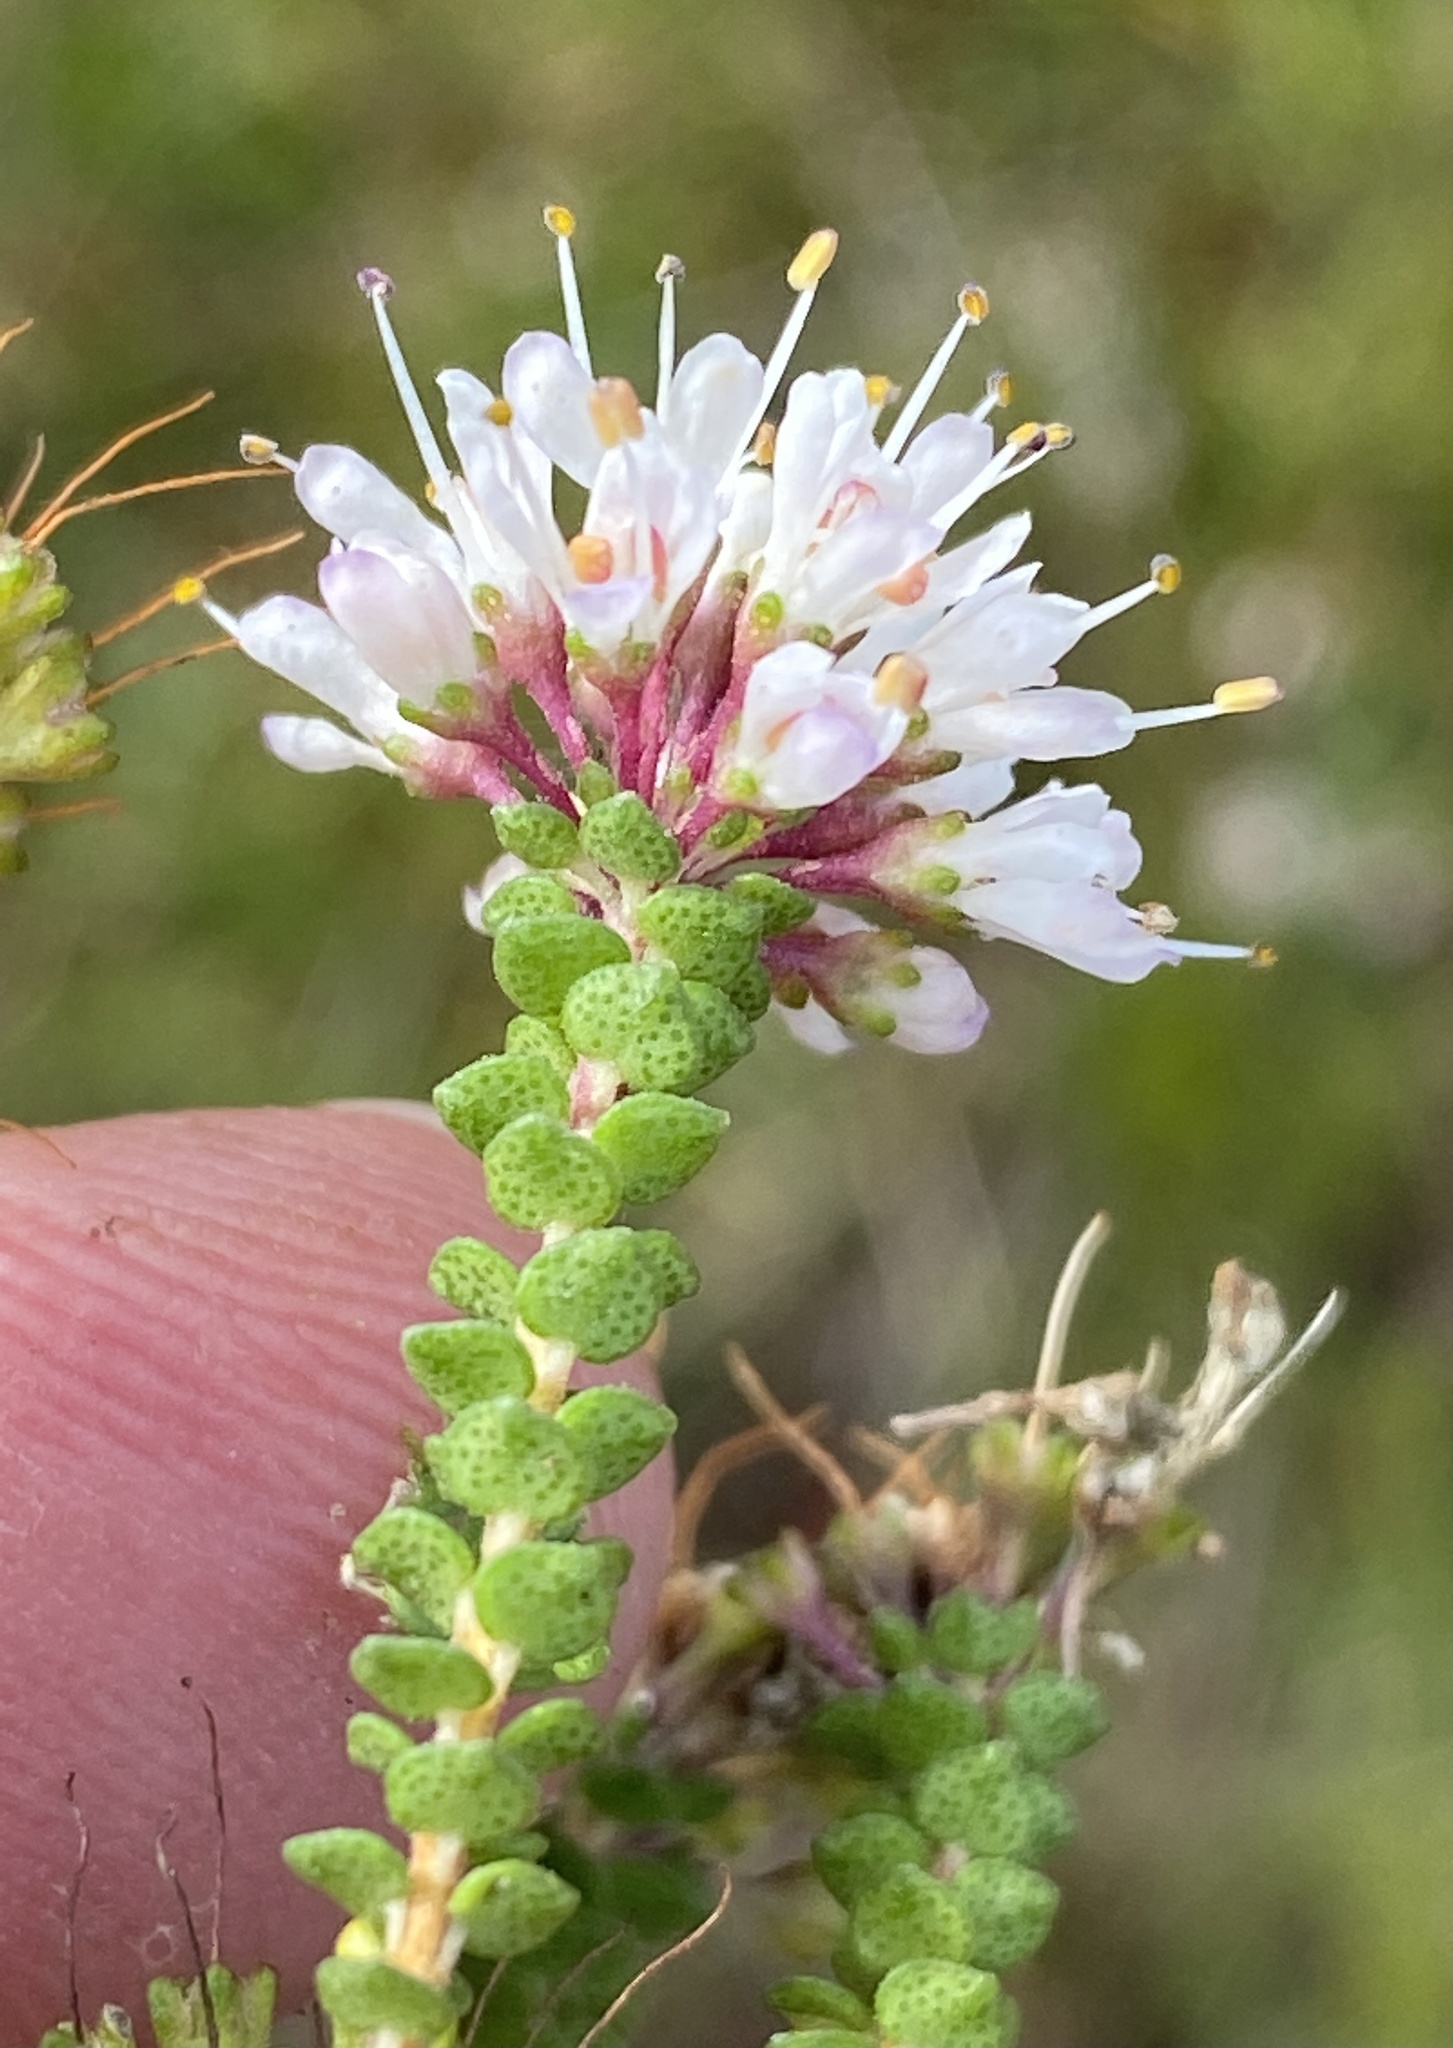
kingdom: Plantae
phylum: Tracheophyta
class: Magnoliopsida
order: Sapindales
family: Rutaceae
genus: Agathosma
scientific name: Agathosma muirii
